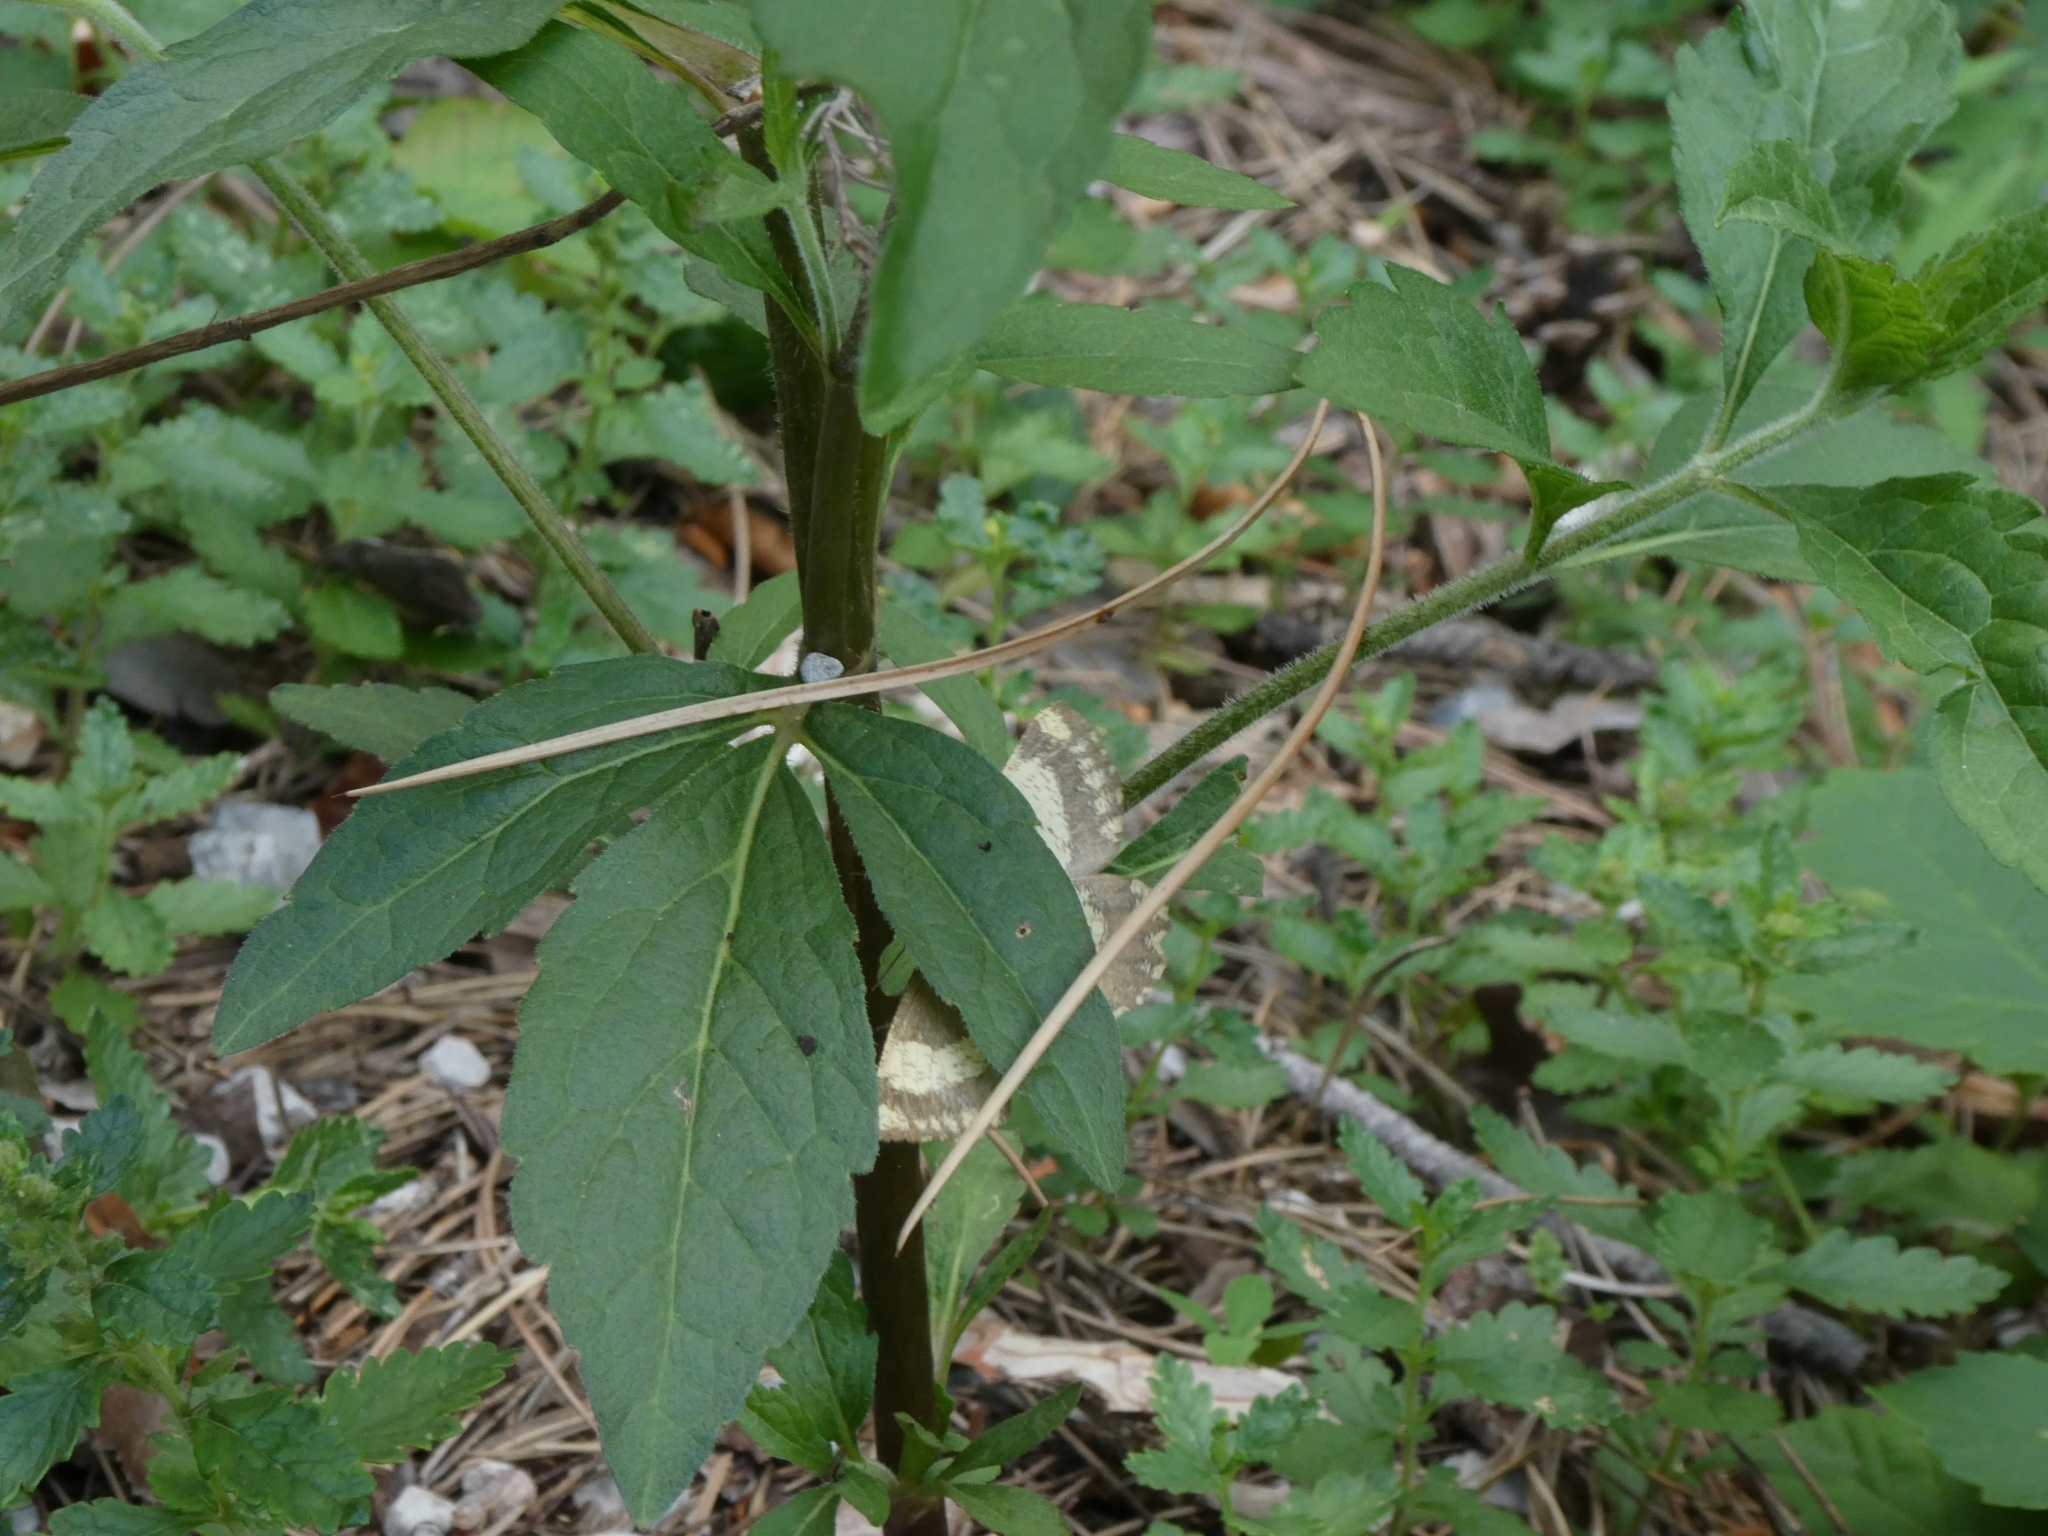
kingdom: Animalia
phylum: Arthropoda
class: Insecta
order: Lepidoptera
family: Geometridae
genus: Angerona
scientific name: Angerona prunaria
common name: Orange moth
